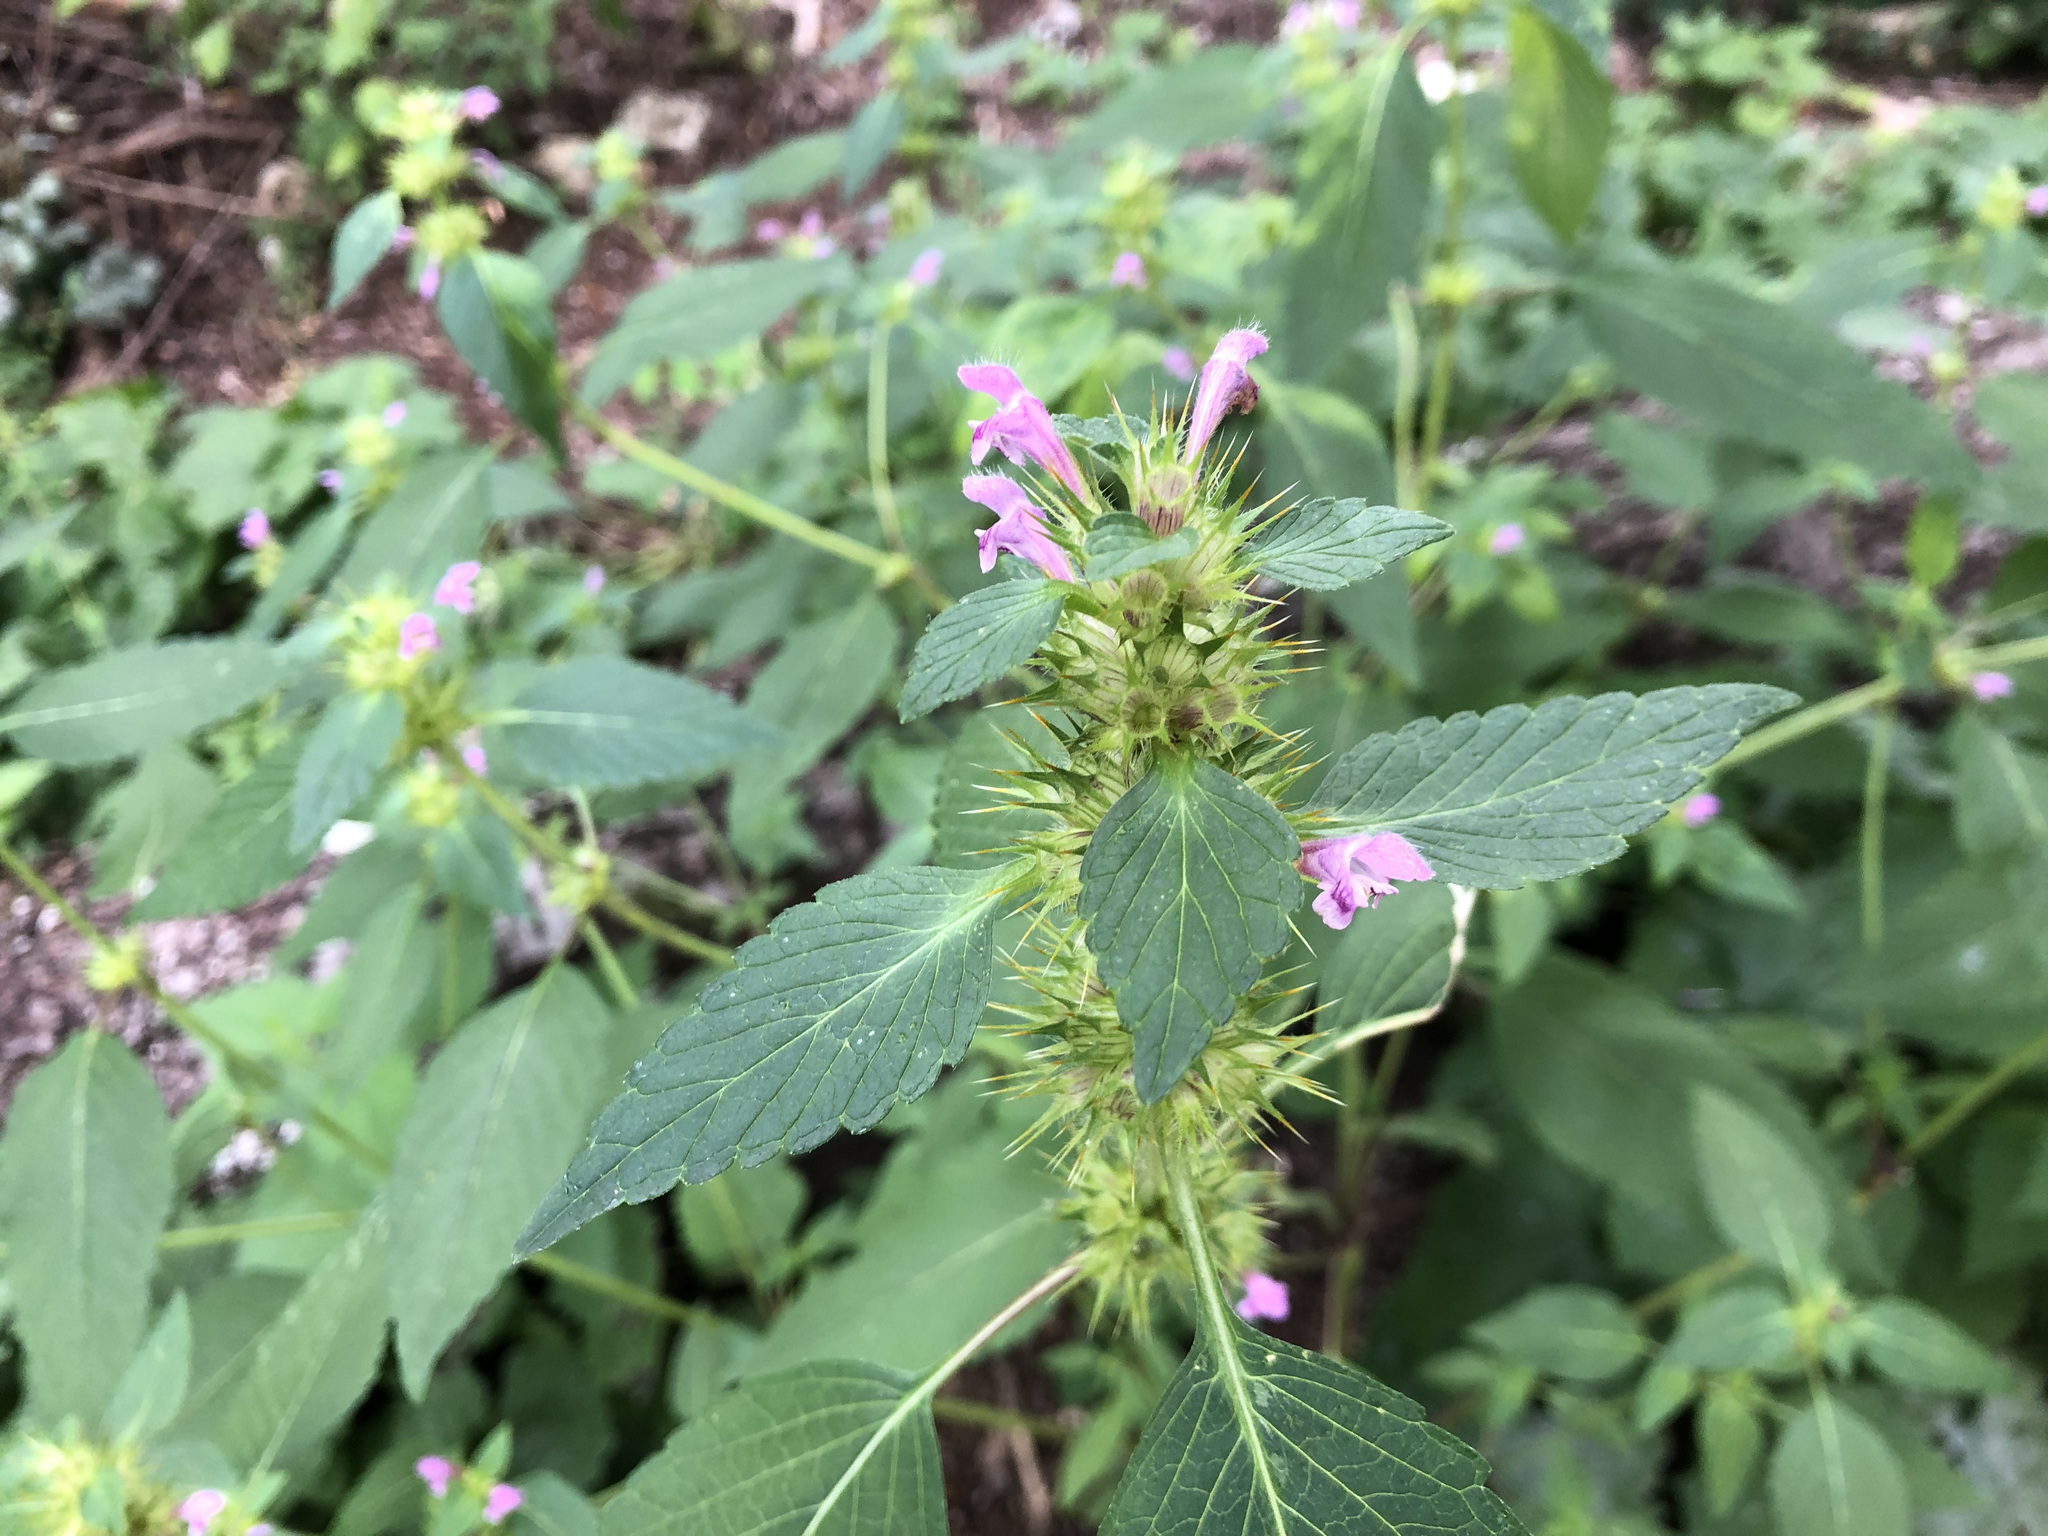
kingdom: Plantae
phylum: Tracheophyta
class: Magnoliopsida
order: Lamiales
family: Lamiaceae
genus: Galeopsis
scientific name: Galeopsis tetrahit
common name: Common hemp-nettle
